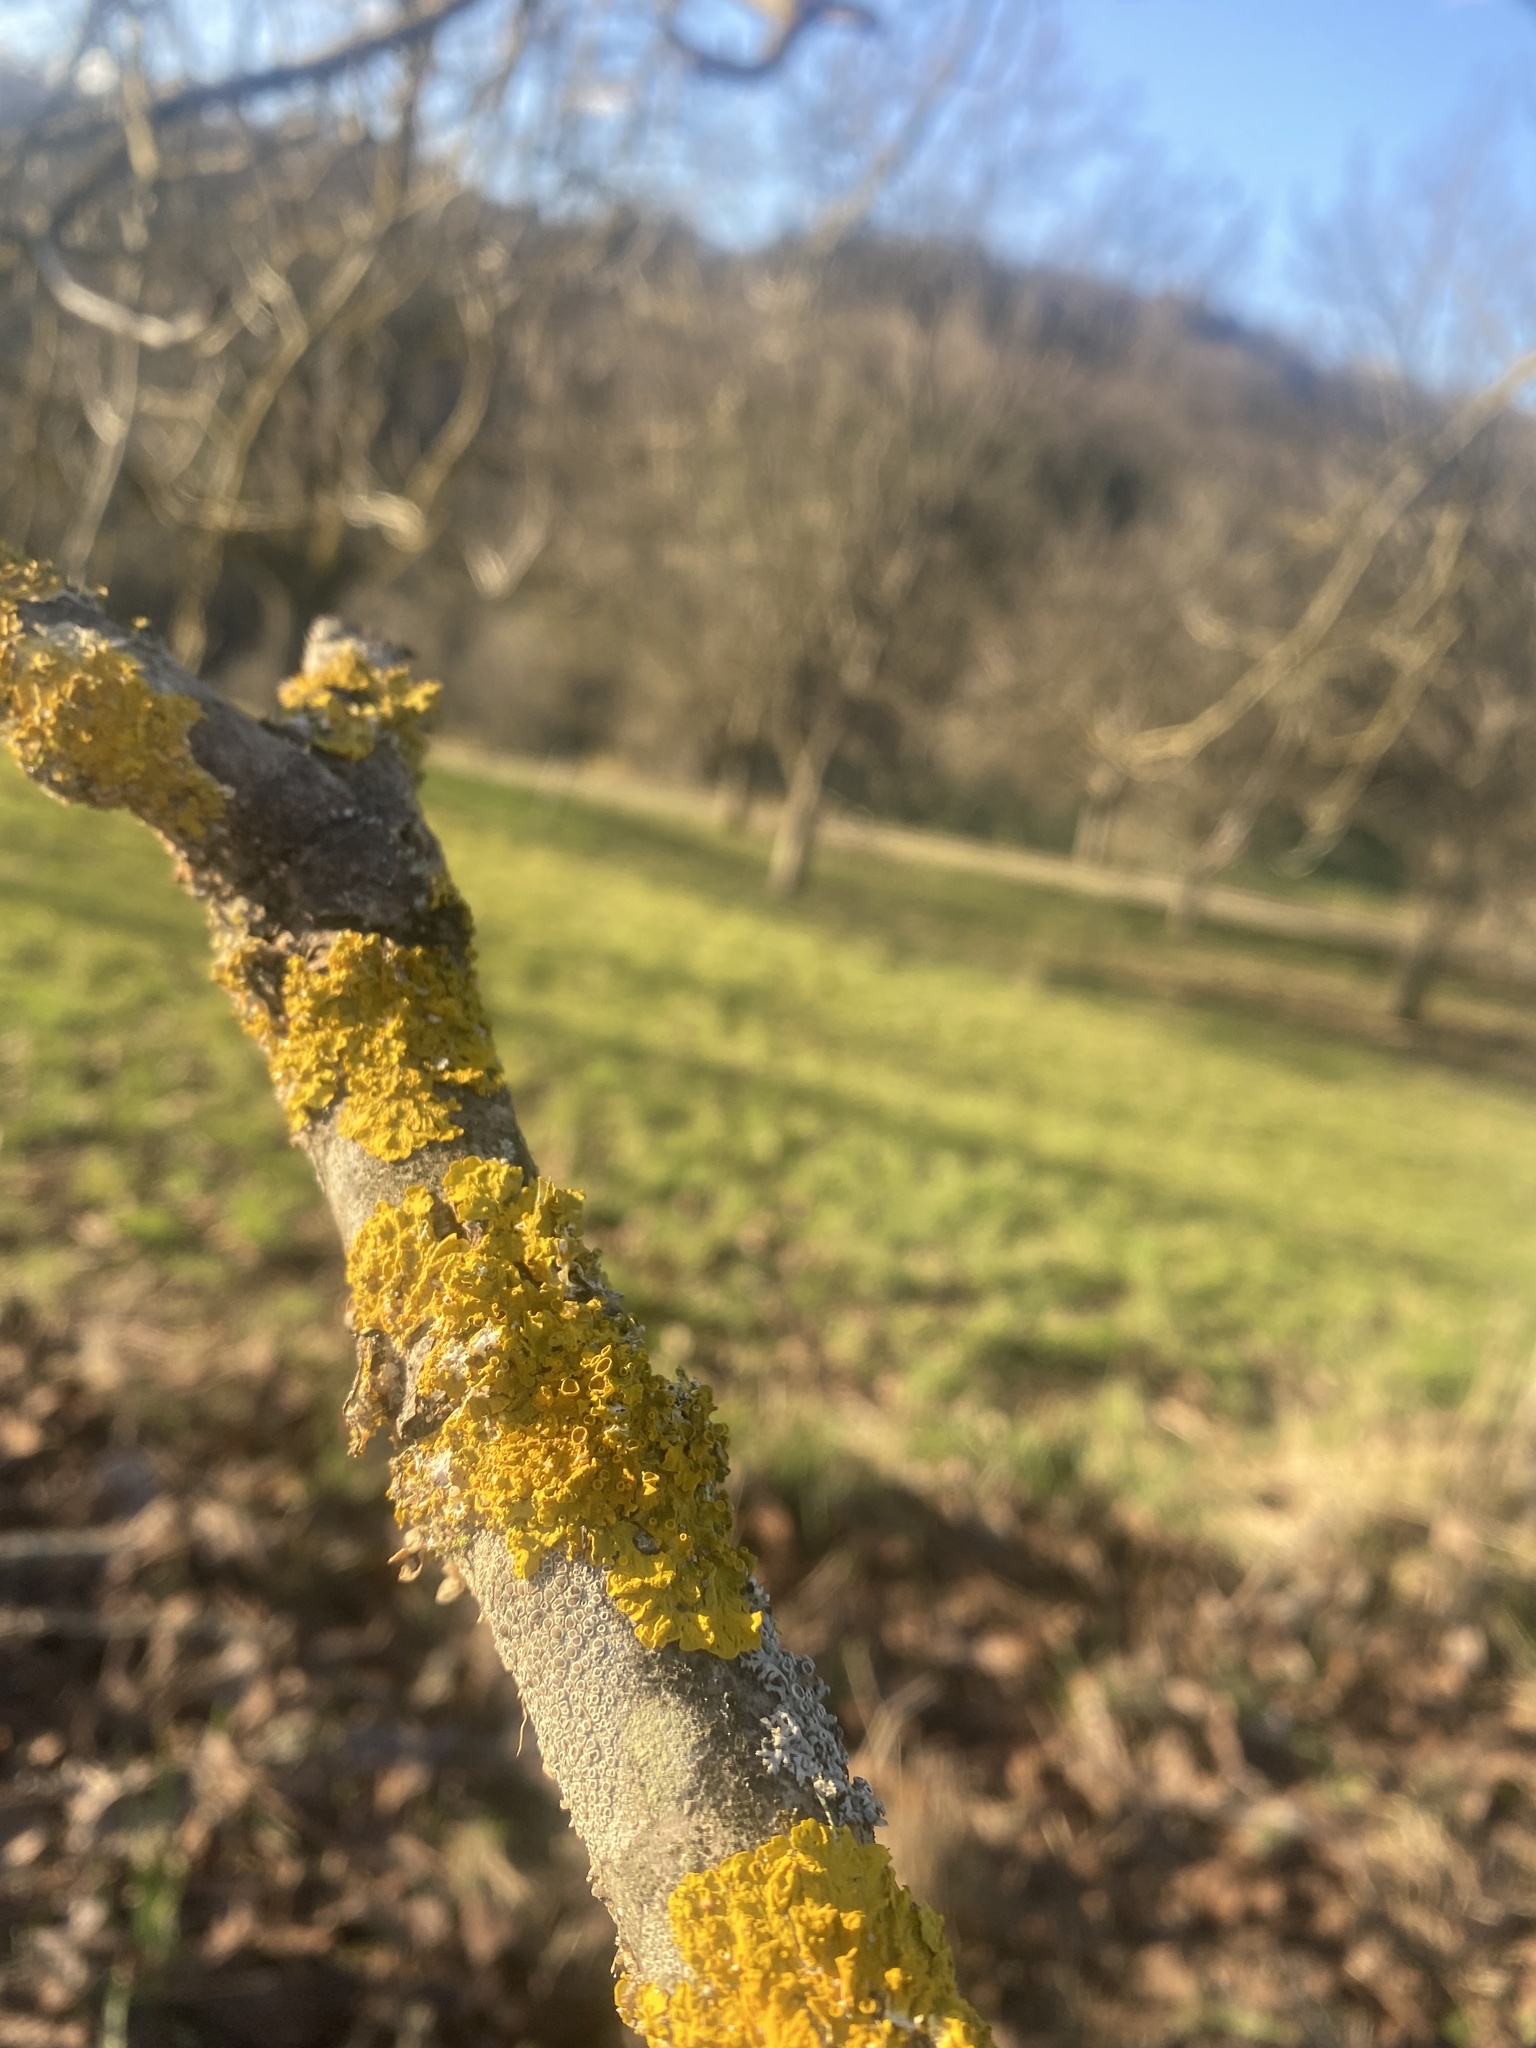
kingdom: Fungi
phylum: Ascomycota
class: Lecanoromycetes
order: Teloschistales
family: Teloschistaceae
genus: Xanthoria
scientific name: Xanthoria parietina
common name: Common orange lichen
